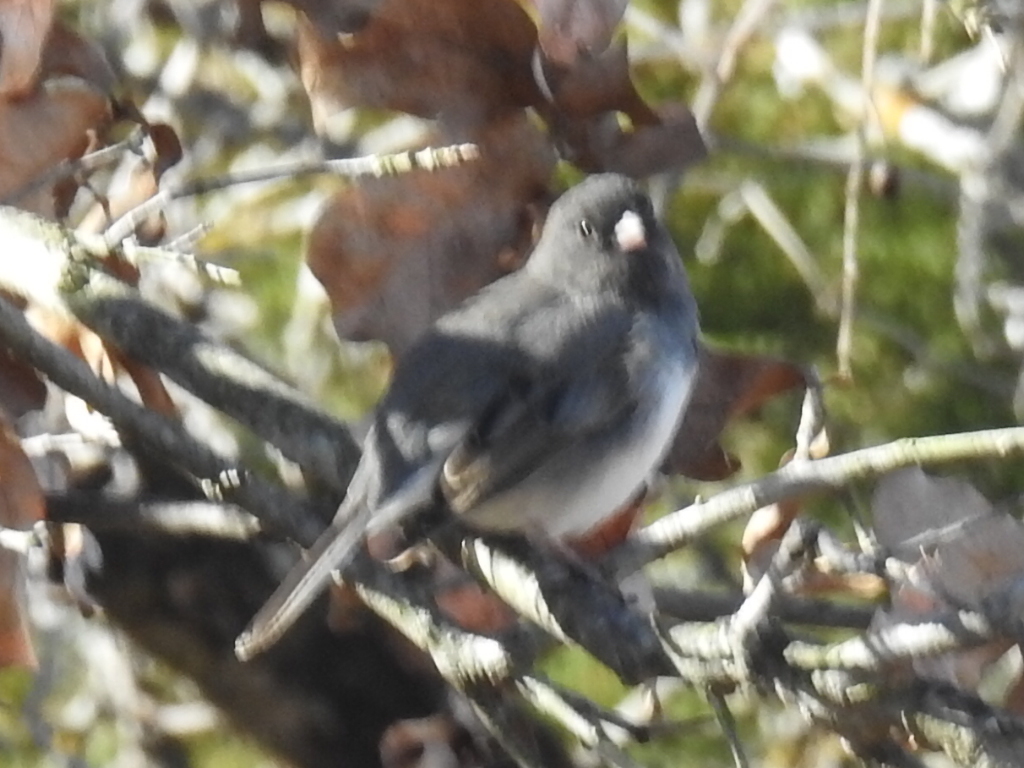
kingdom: Animalia
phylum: Chordata
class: Aves
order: Passeriformes
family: Passerellidae
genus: Junco
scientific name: Junco hyemalis
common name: Dark-eyed junco
